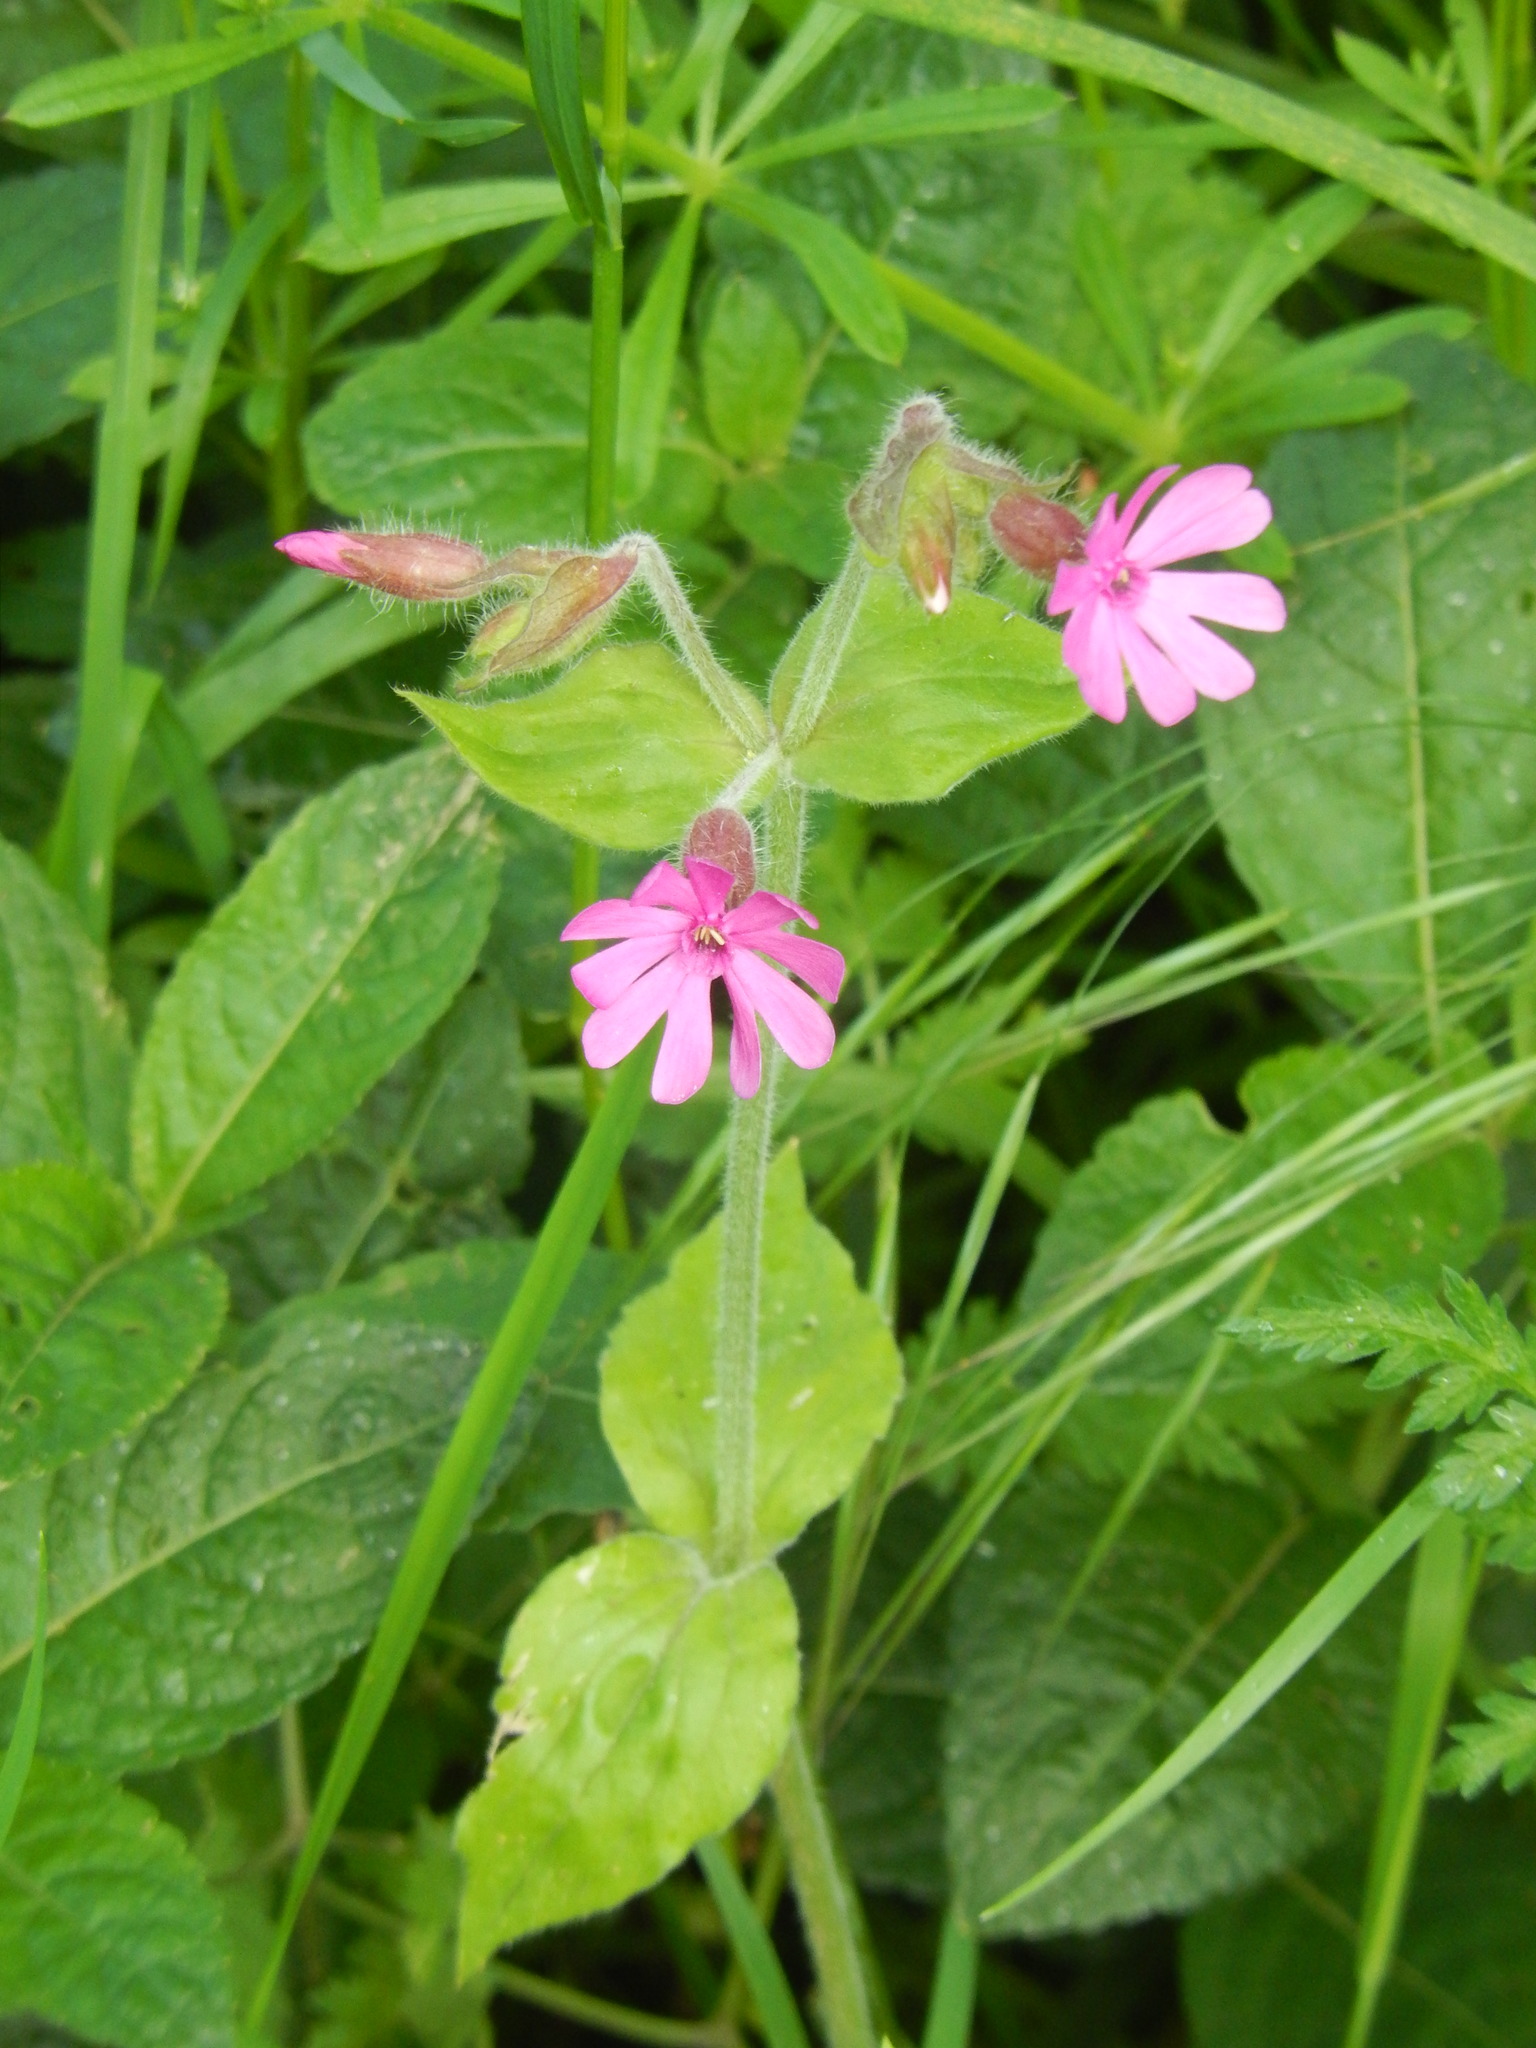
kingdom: Plantae
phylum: Tracheophyta
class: Magnoliopsida
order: Caryophyllales
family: Caryophyllaceae
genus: Silene
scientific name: Silene dioica
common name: Red campion
